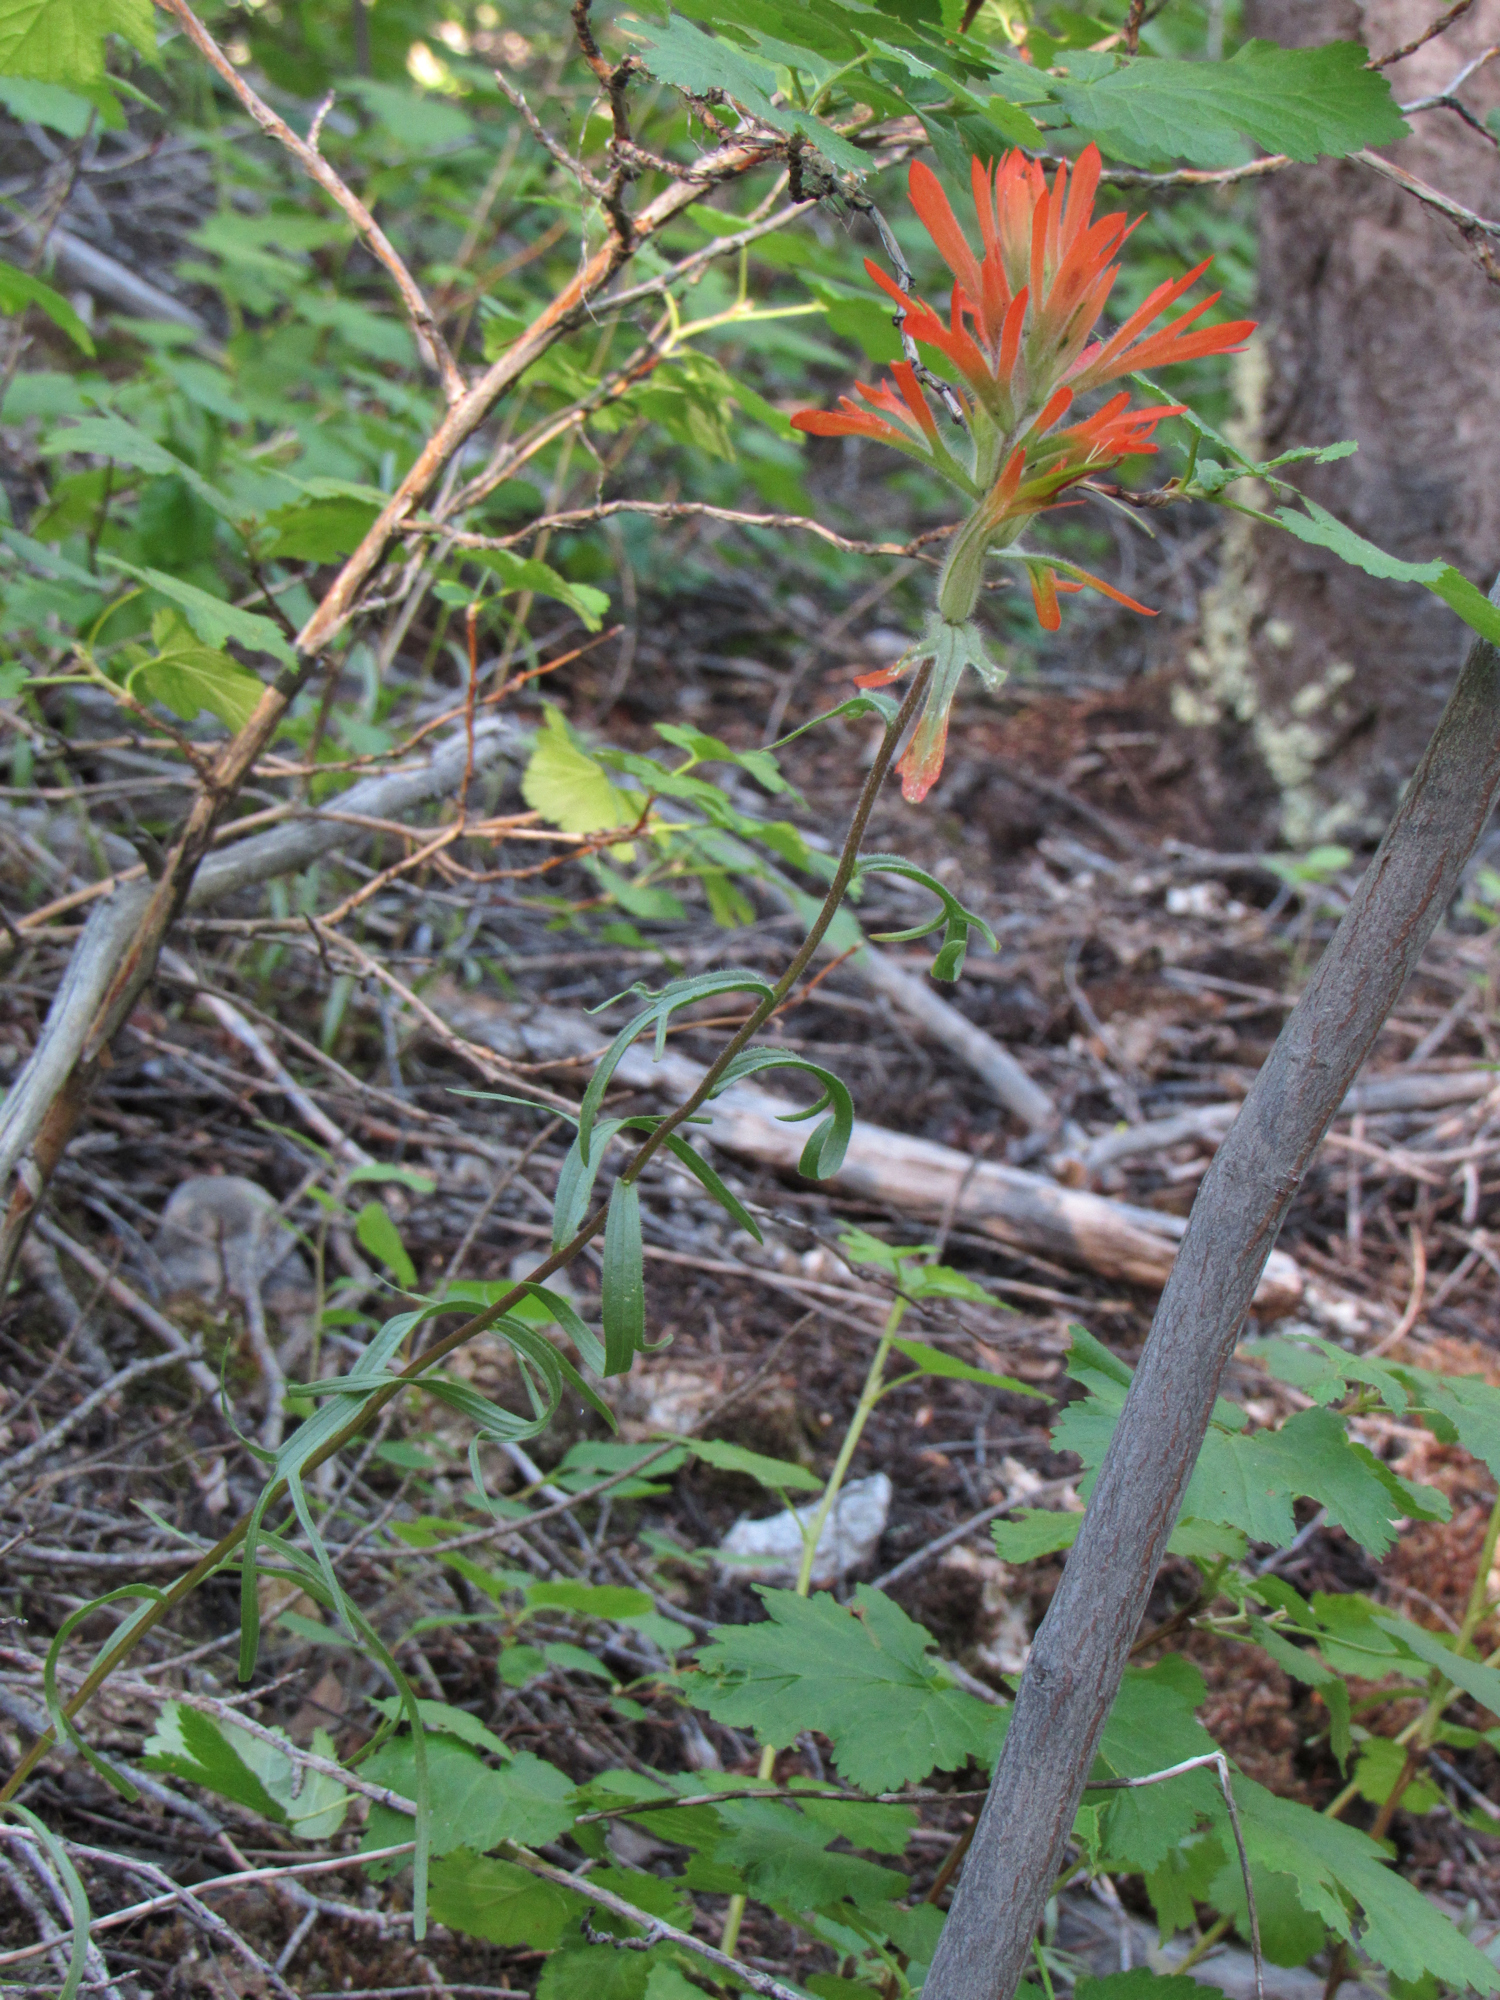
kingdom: Plantae
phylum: Tracheophyta
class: Magnoliopsida
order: Lamiales
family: Orobanchaceae
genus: Castilleja
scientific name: Castilleja crista-galli
